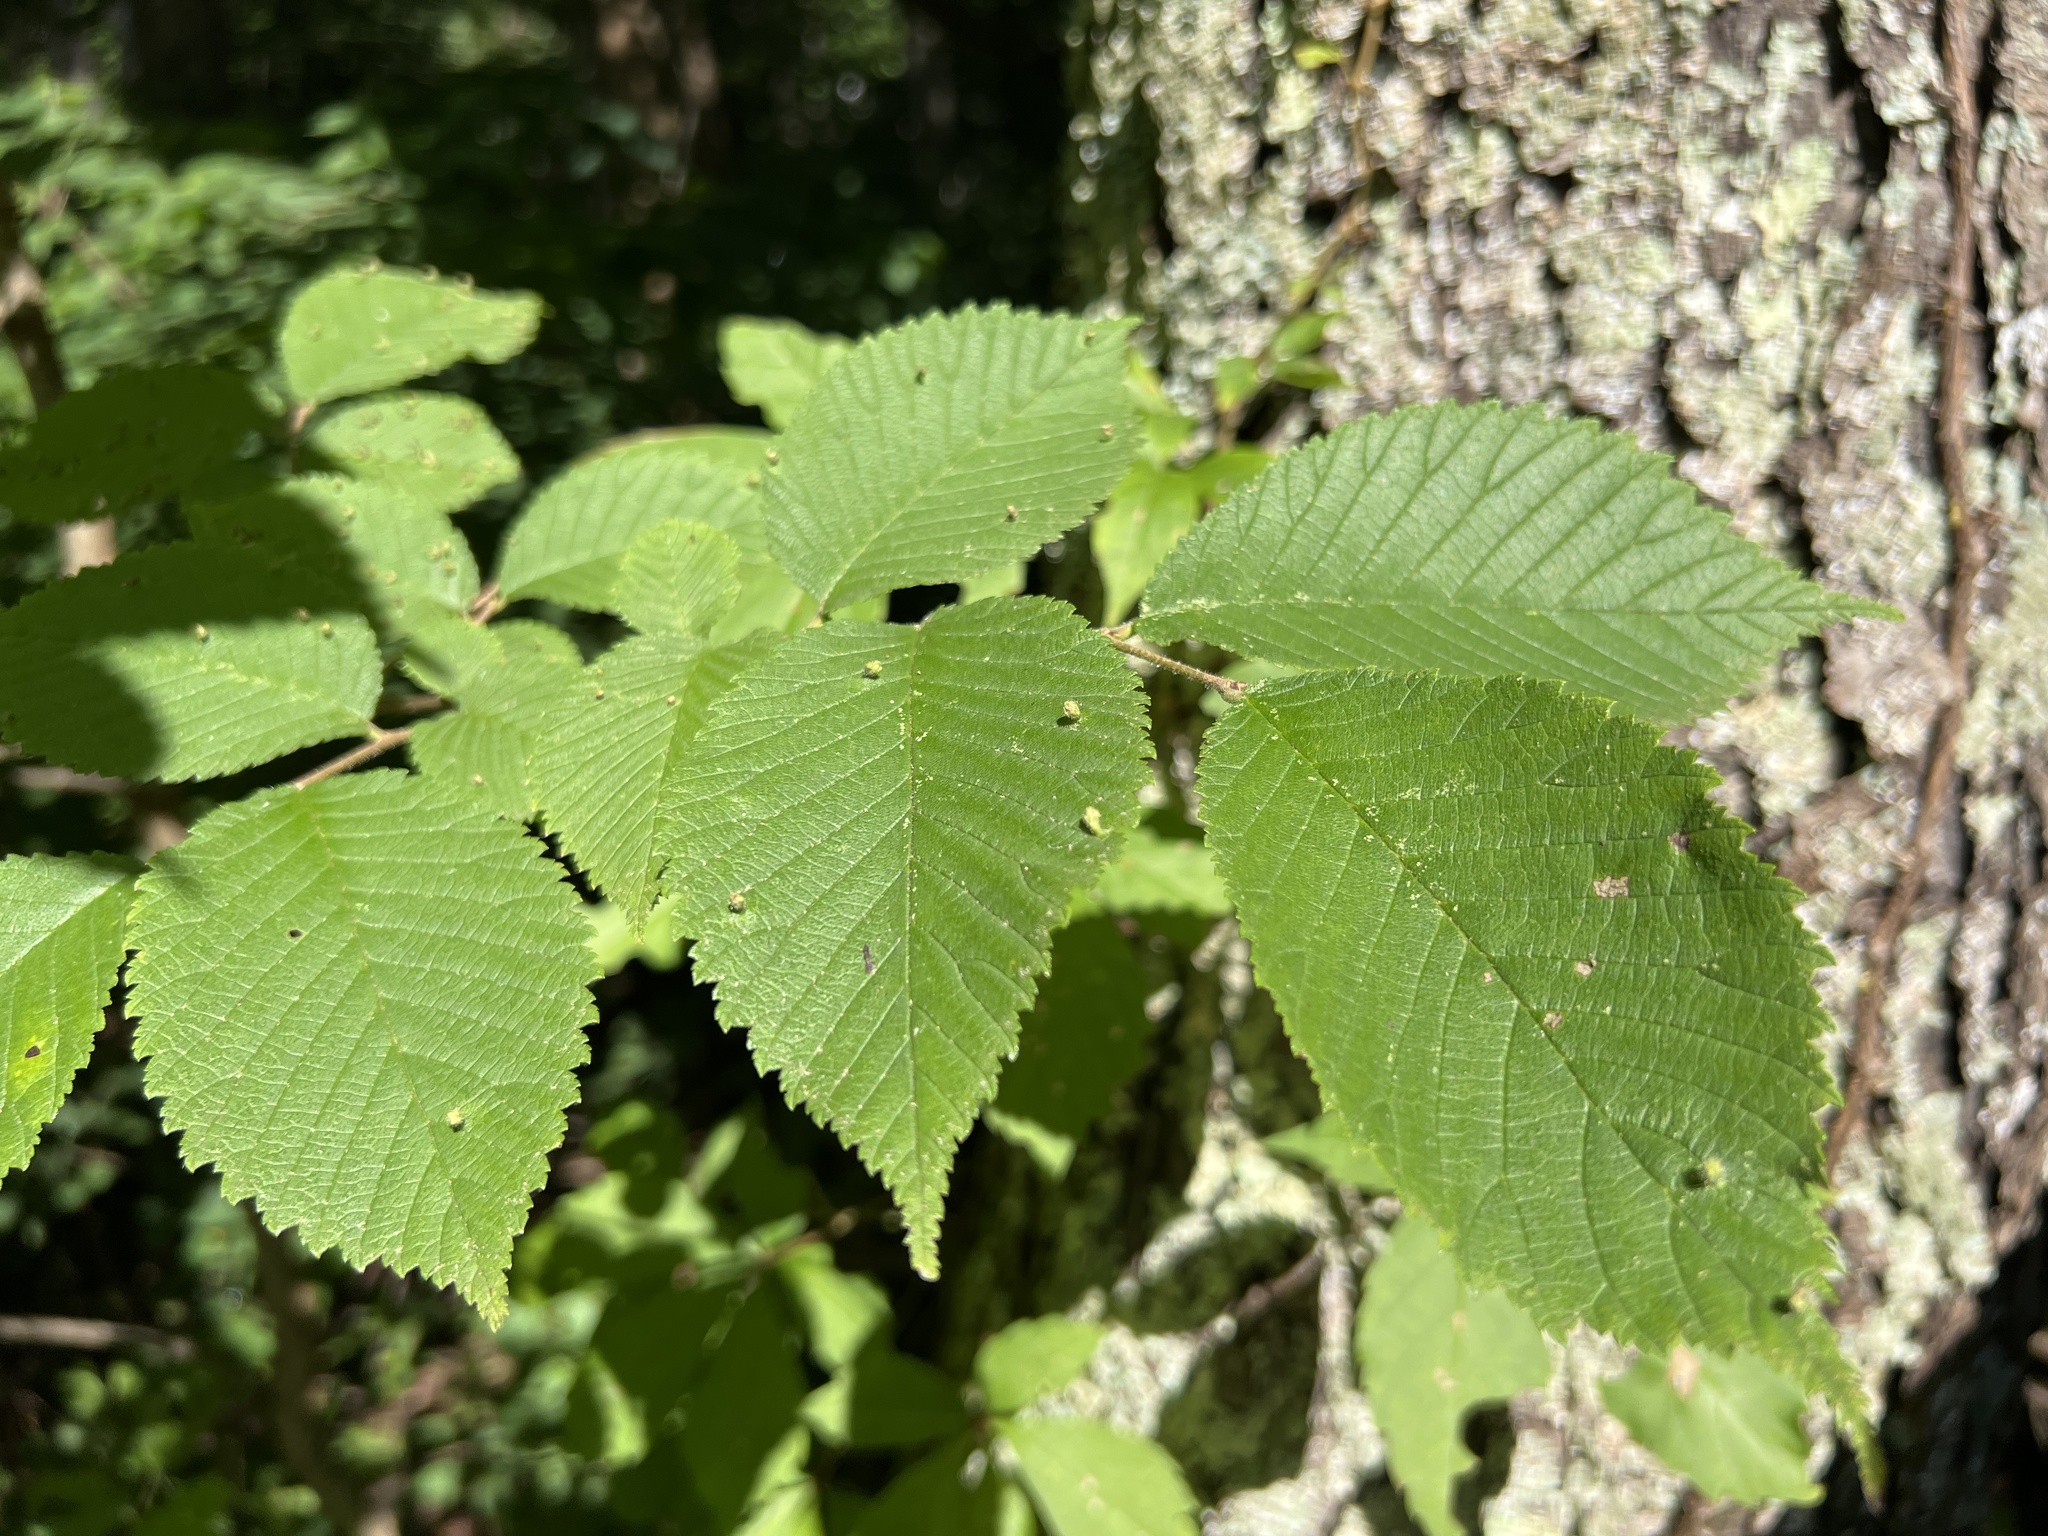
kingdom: Plantae
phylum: Tracheophyta
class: Magnoliopsida
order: Rosales
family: Ulmaceae
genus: Ulmus
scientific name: Ulmus rubra
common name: Slippery elm
